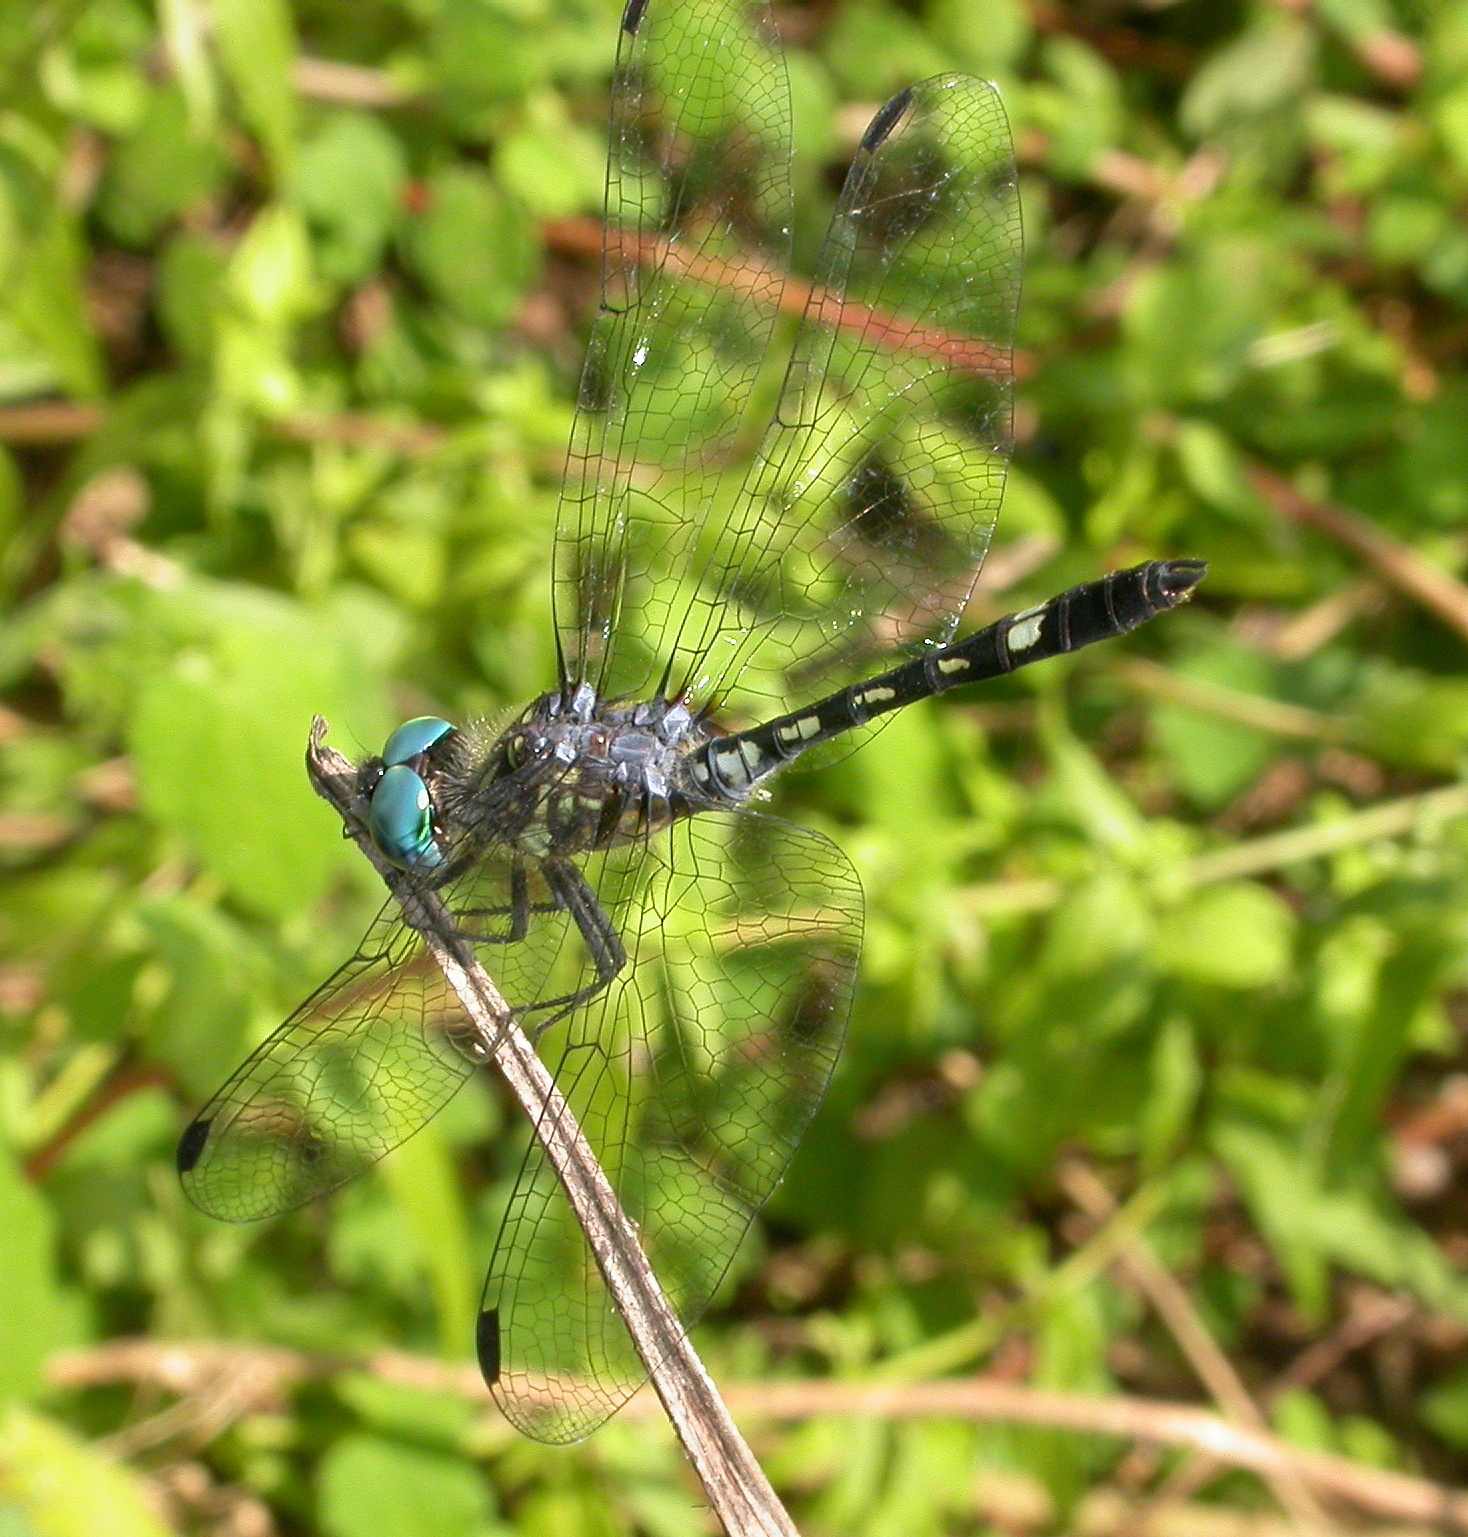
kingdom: Animalia
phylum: Arthropoda
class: Insecta
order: Odonata
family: Libellulidae
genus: Micrathyria
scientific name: Micrathyria hagenii
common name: Thornbush dasher
